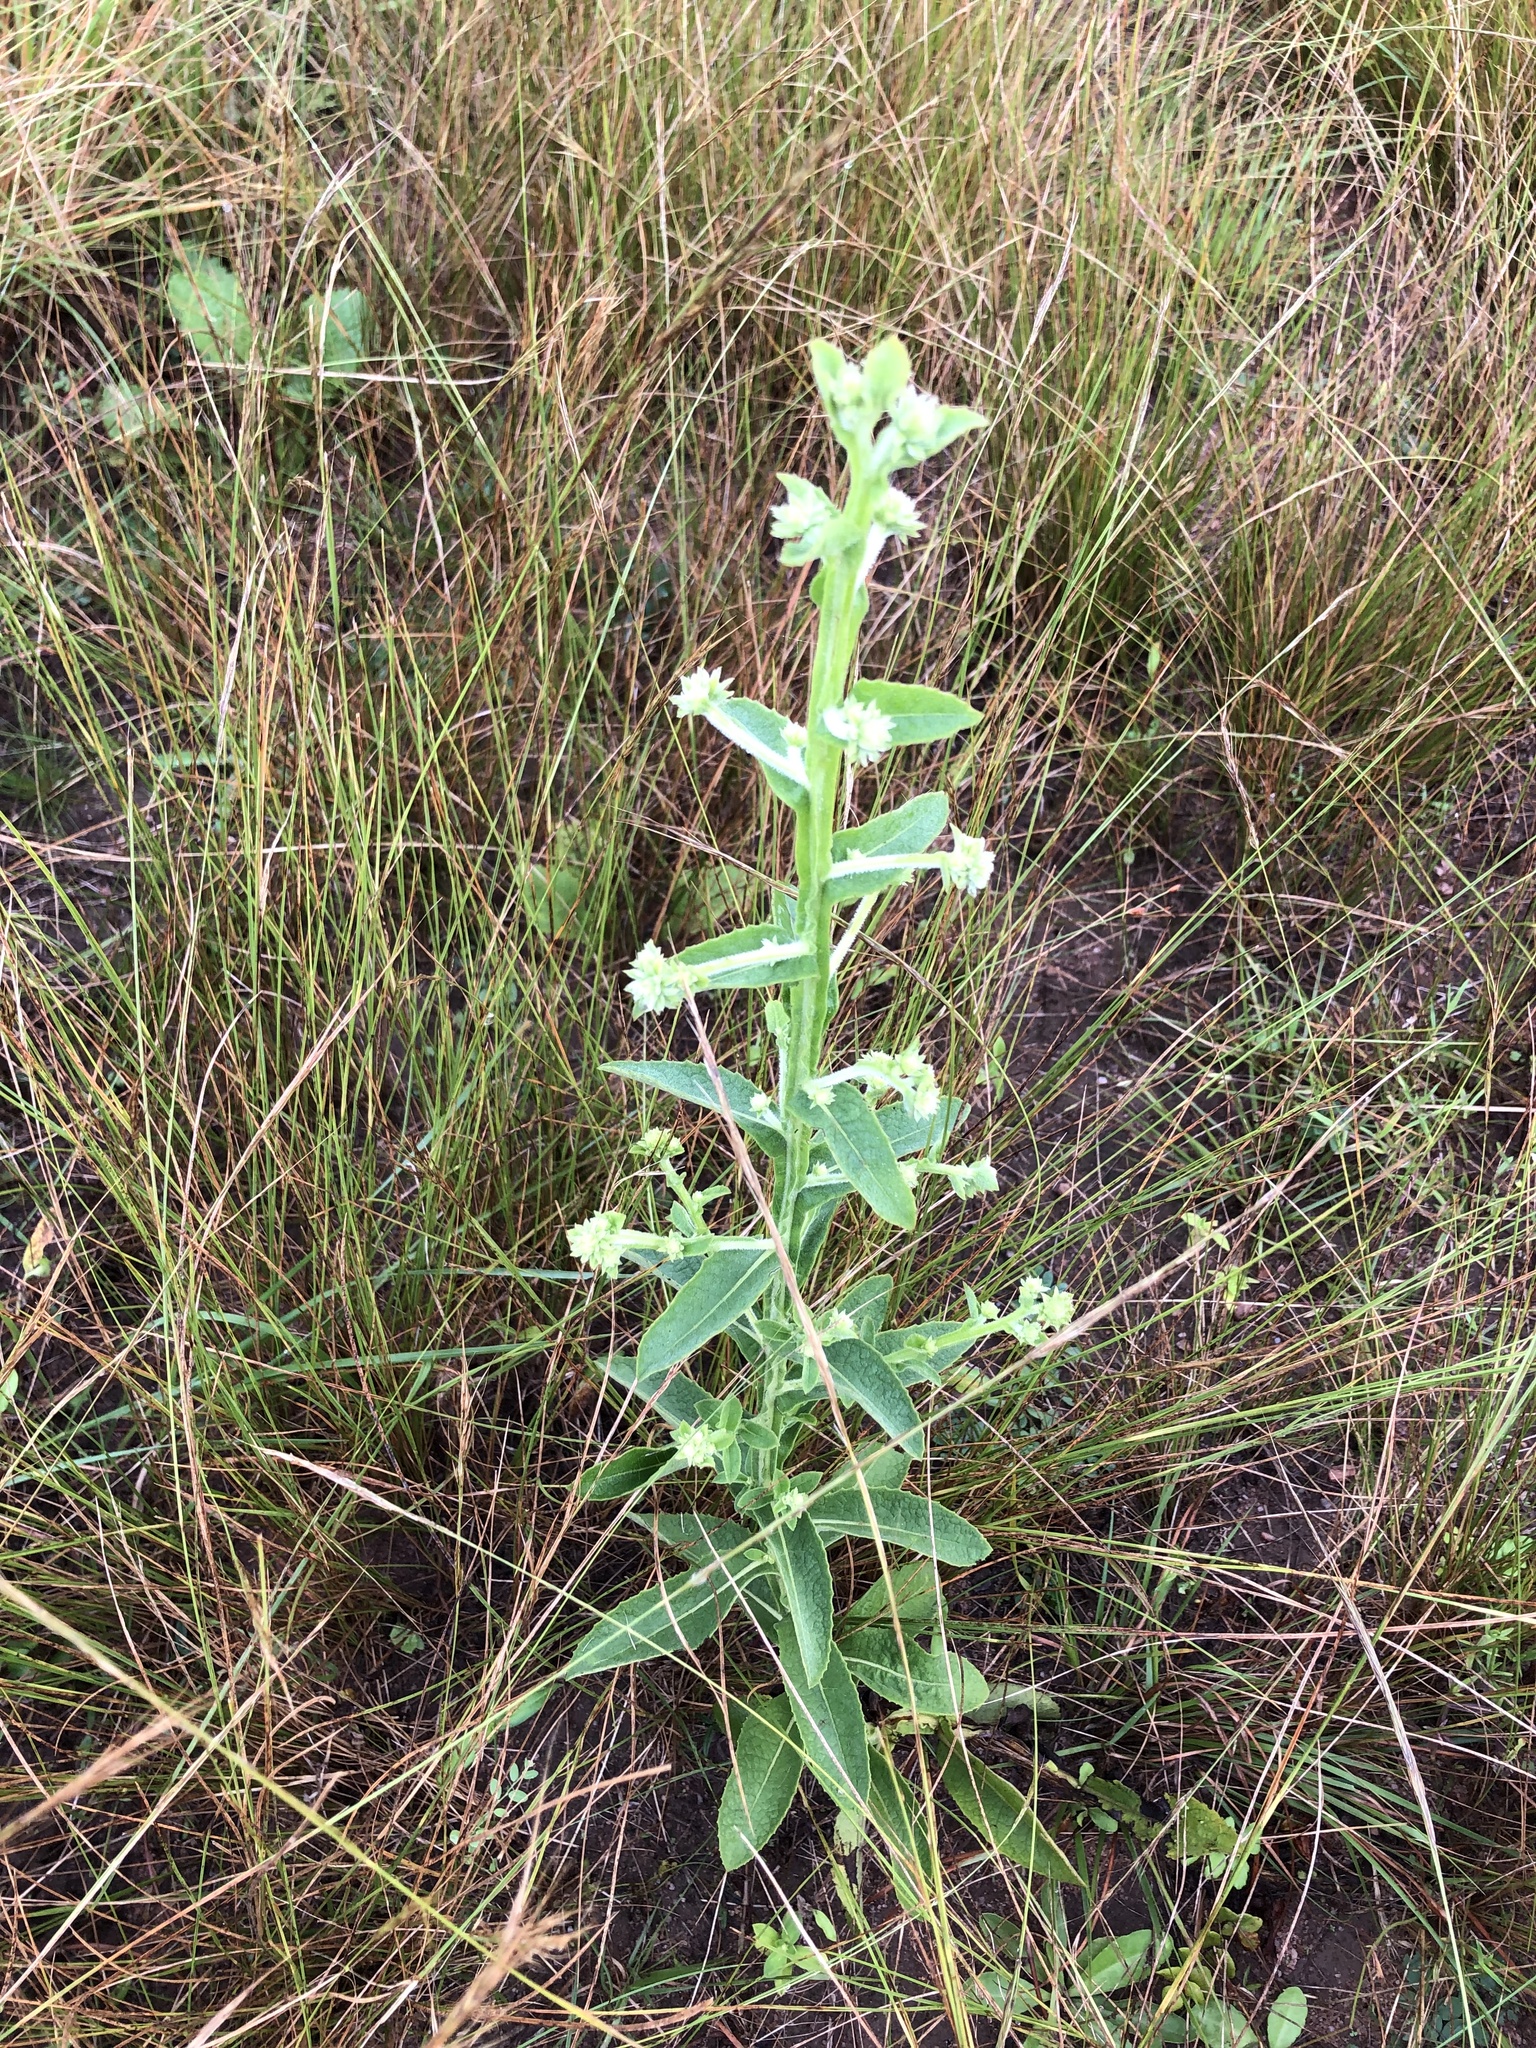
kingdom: Plantae
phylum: Tracheophyta
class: Magnoliopsida
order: Asterales
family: Asteraceae
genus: Laggera
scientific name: Laggera alata
